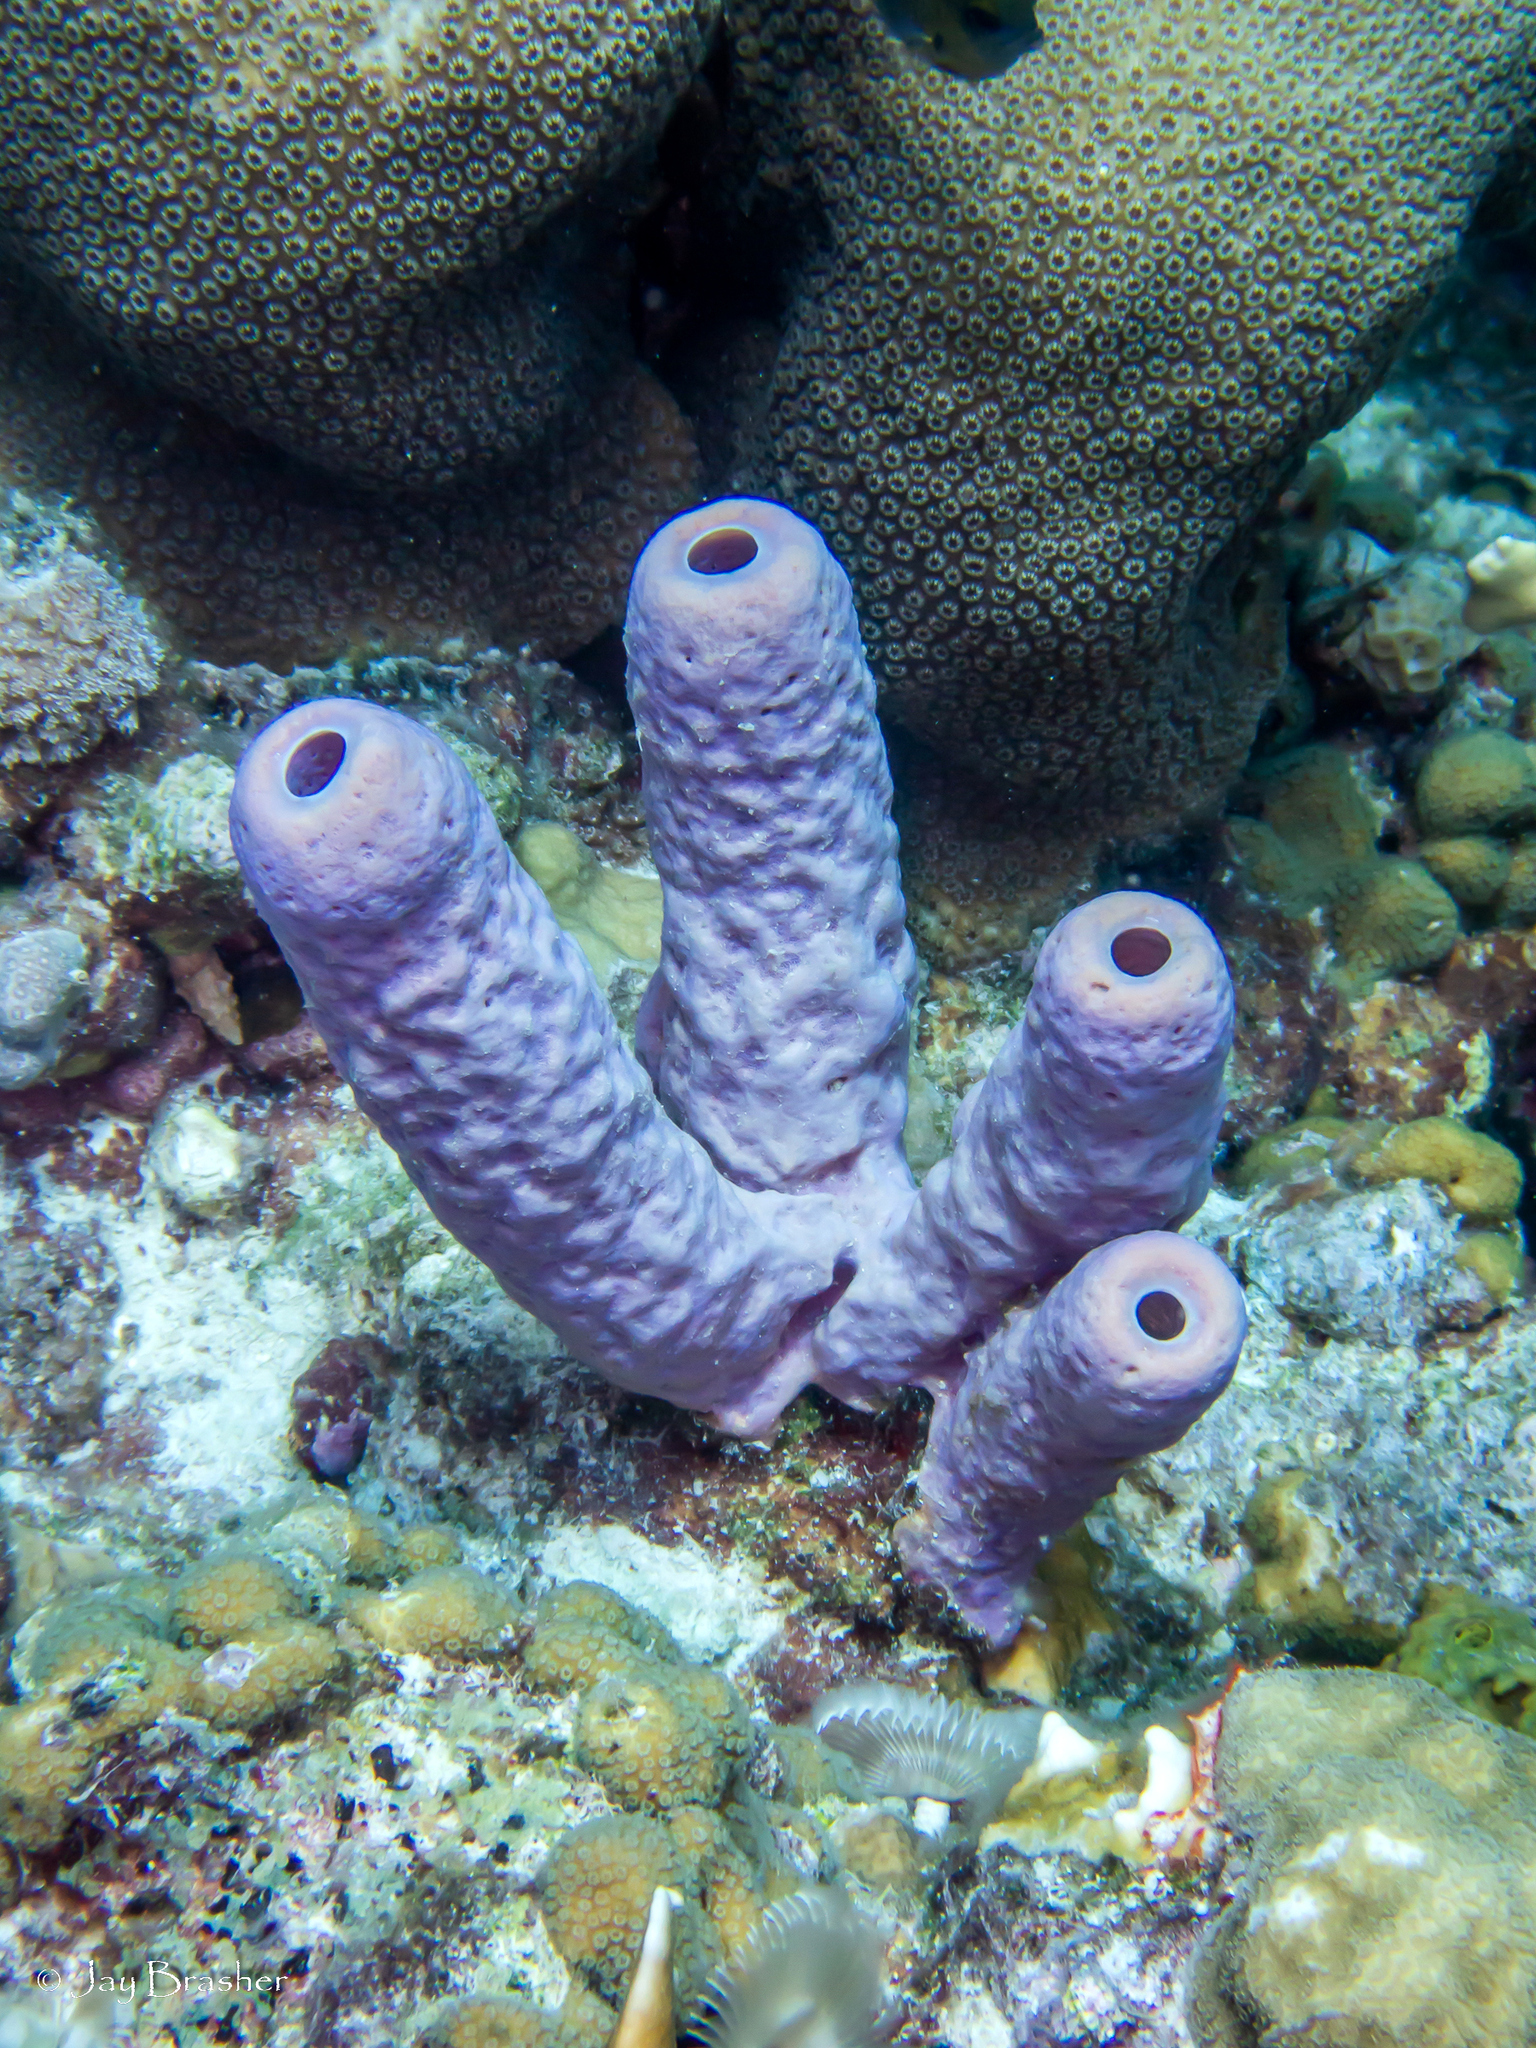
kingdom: Animalia
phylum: Porifera
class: Demospongiae
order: Verongiida
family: Aplysinidae
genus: Aplysina
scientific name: Aplysina archeri
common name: Stove-pipe sponge
